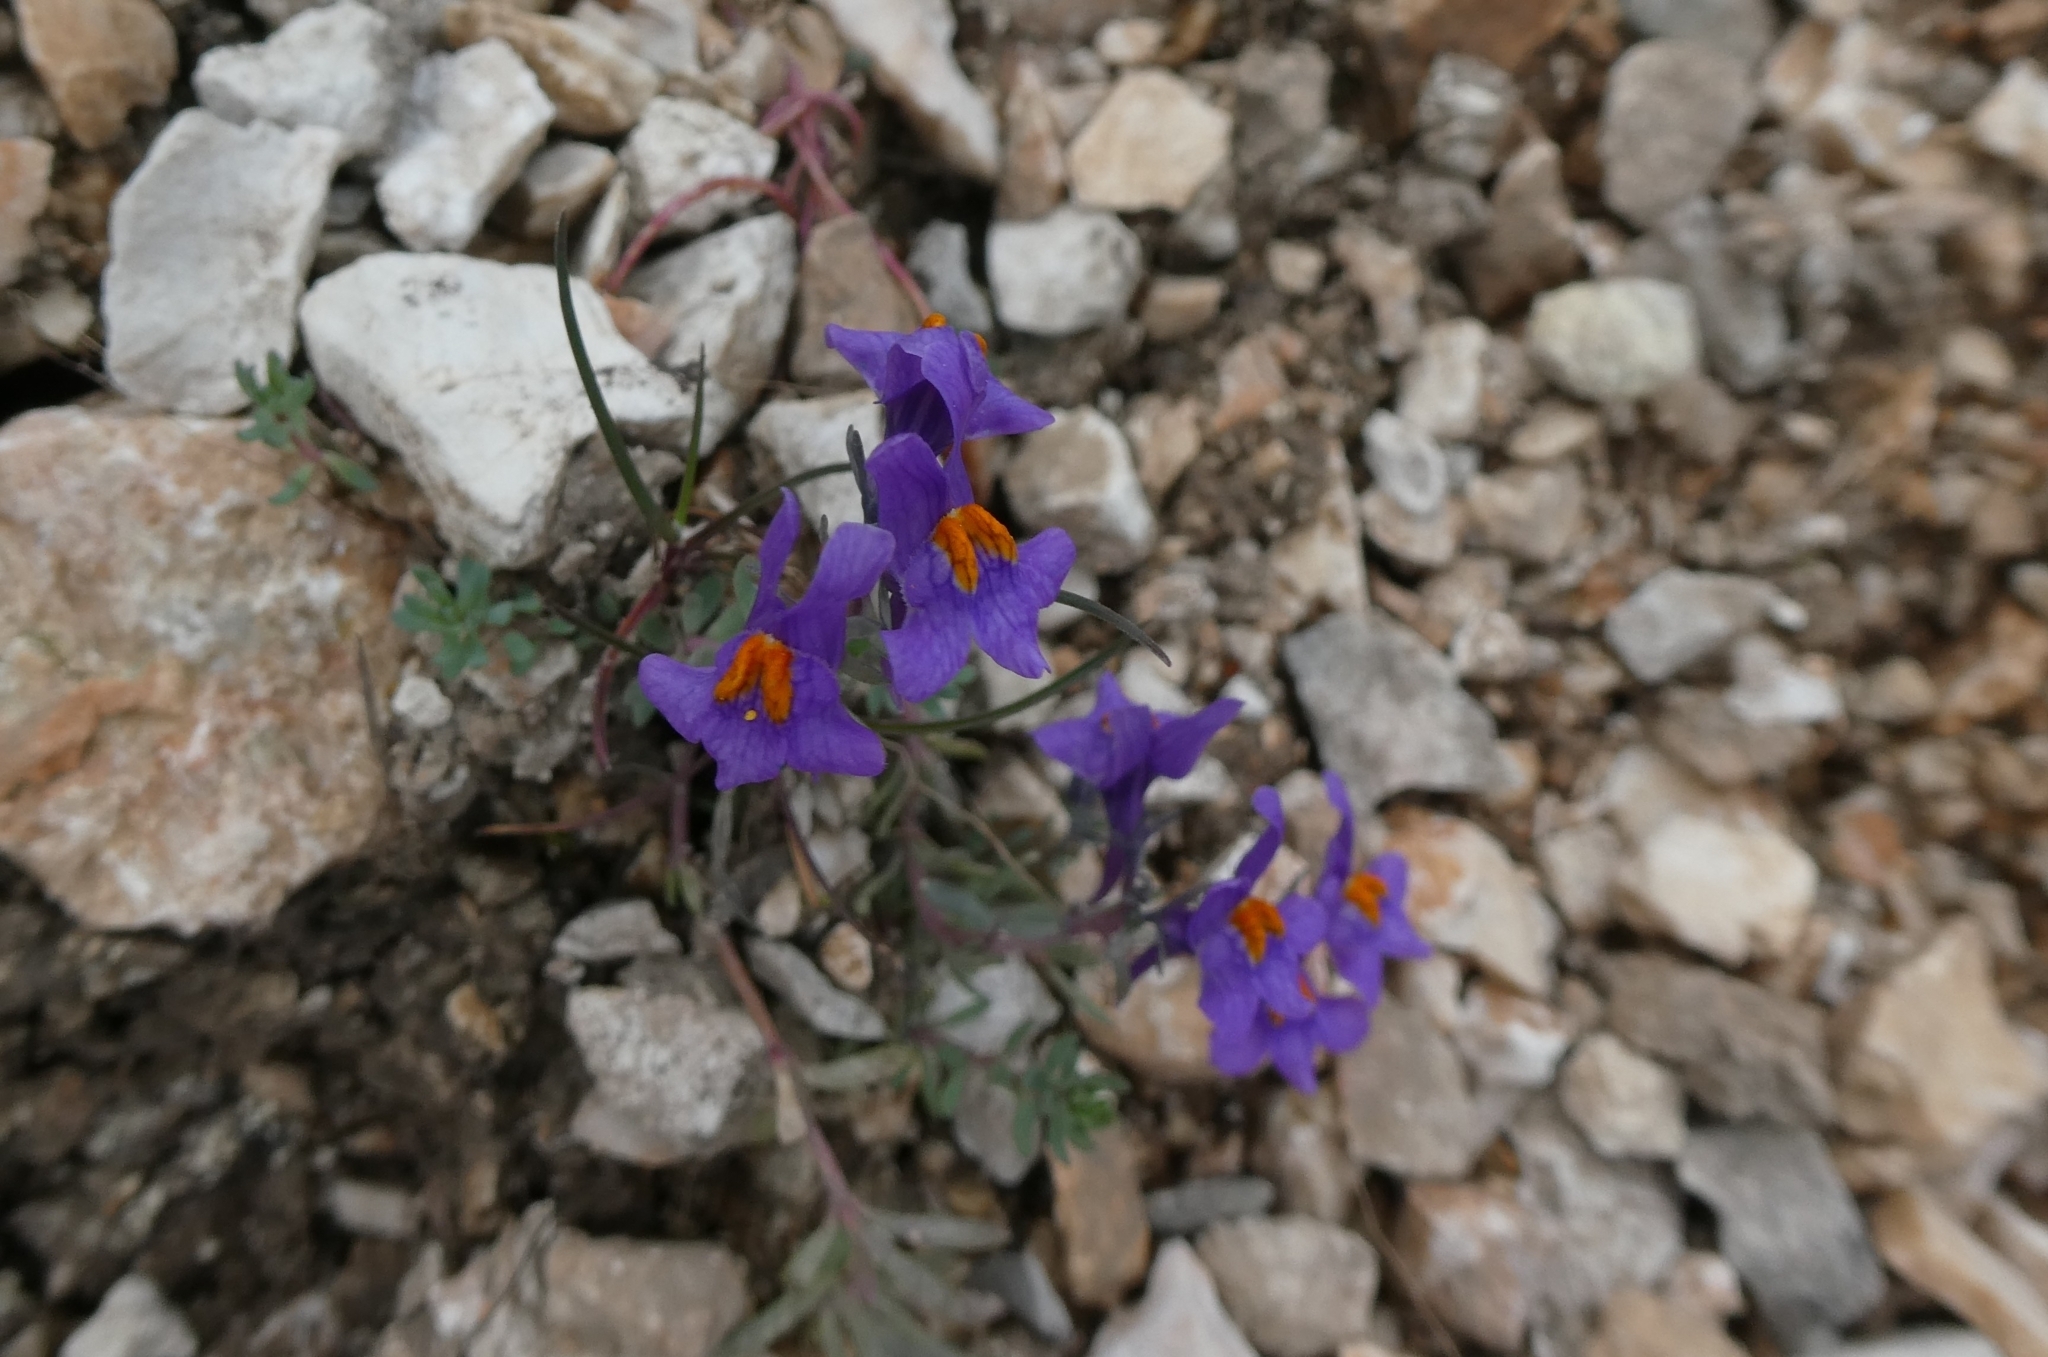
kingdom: Plantae
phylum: Tracheophyta
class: Magnoliopsida
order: Lamiales
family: Plantaginaceae
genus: Linaria
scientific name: Linaria alpina
